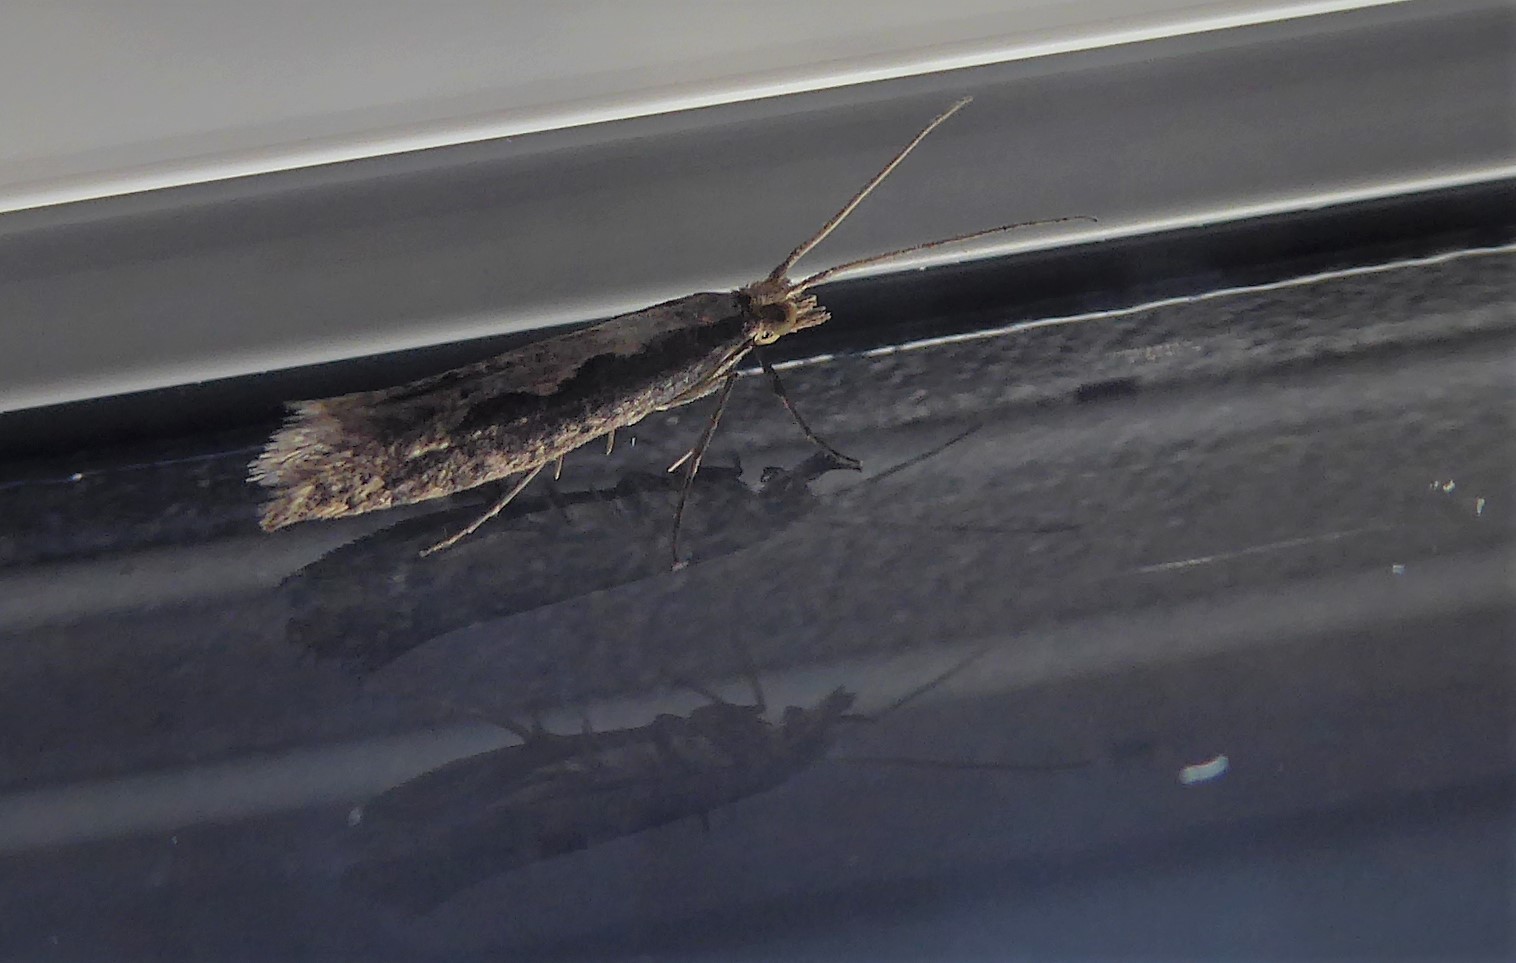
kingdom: Animalia
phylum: Arthropoda
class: Insecta
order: Lepidoptera
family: Plutellidae
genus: Plutella
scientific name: Plutella xylostella
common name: Diamond-back moth
